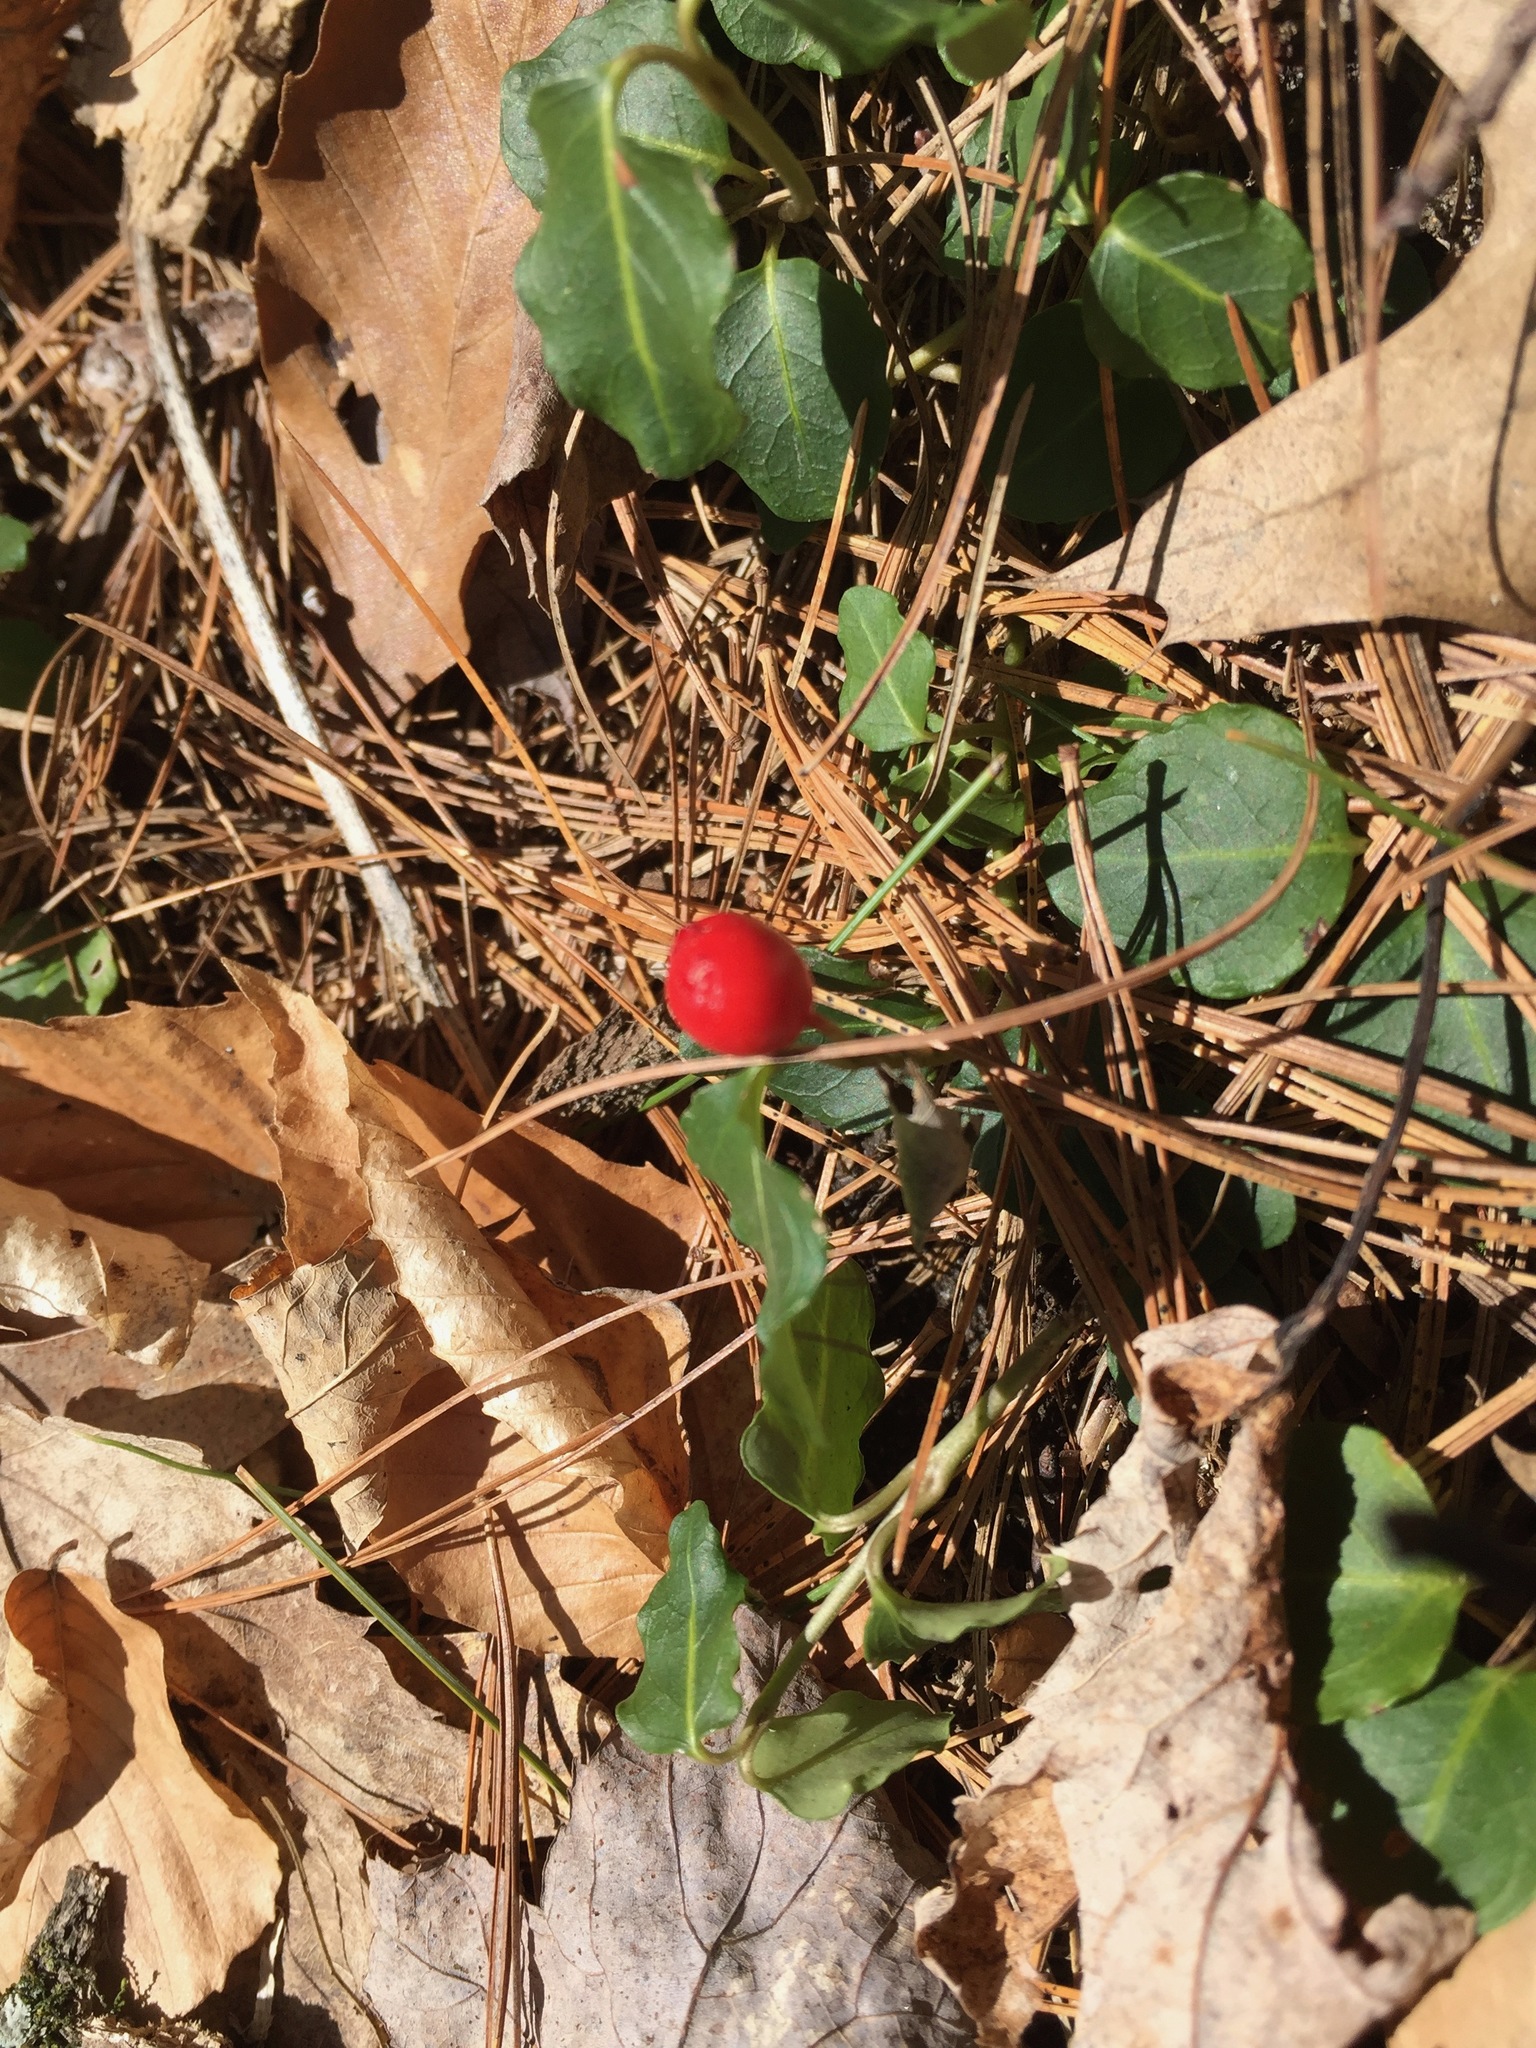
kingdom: Plantae
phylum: Tracheophyta
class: Magnoliopsida
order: Gentianales
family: Rubiaceae
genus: Mitchella
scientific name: Mitchella repens
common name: Partridge-berry
